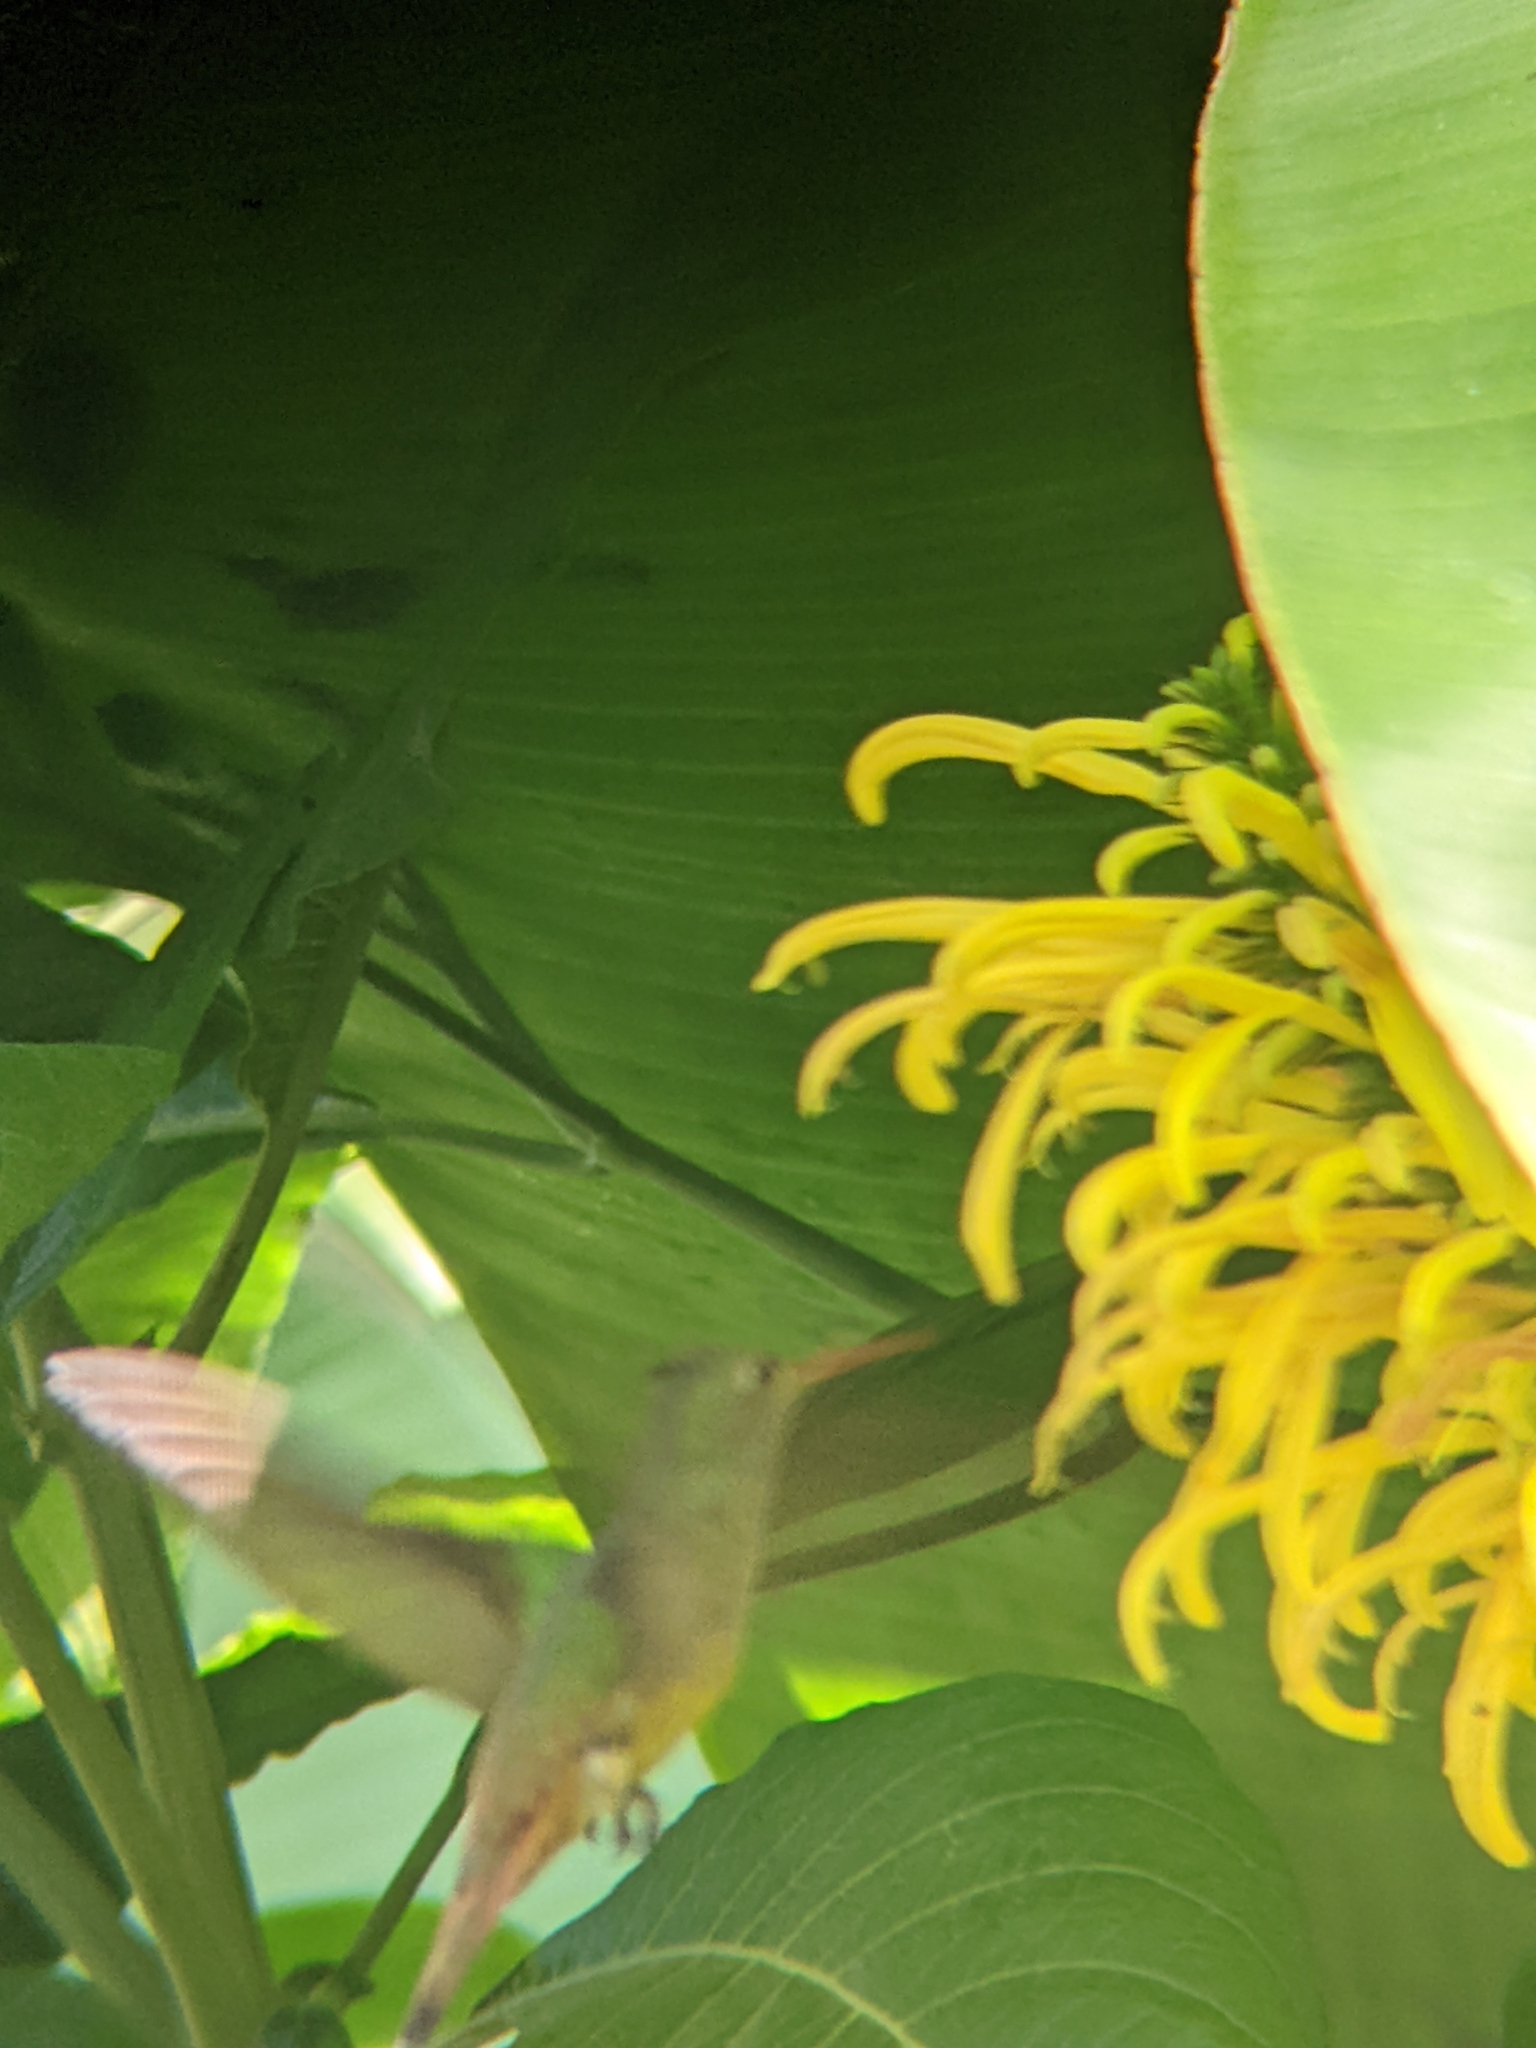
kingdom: Animalia
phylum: Chordata
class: Aves
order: Apodiformes
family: Trochilidae
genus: Amazilia
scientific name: Amazilia yucatanensis
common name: Buff-bellied hummingbird
